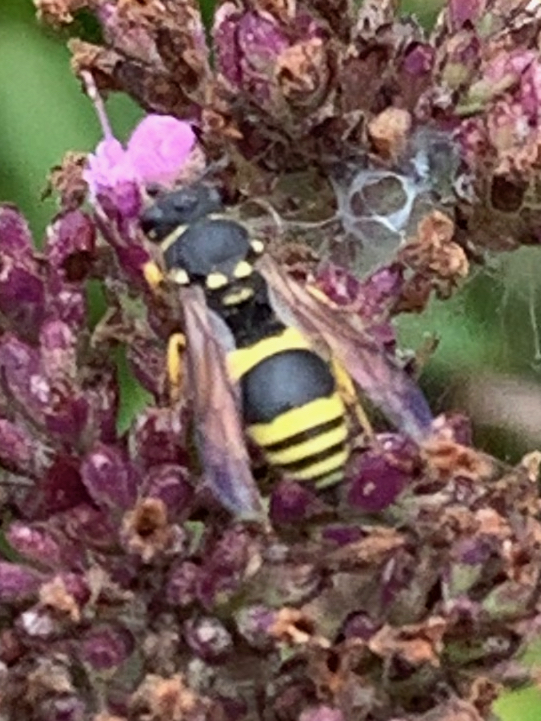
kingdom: Animalia
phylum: Arthropoda
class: Insecta
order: Hymenoptera
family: Vespidae
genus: Ancistrocerus
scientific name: Ancistrocerus gazella
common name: European tube wasp
